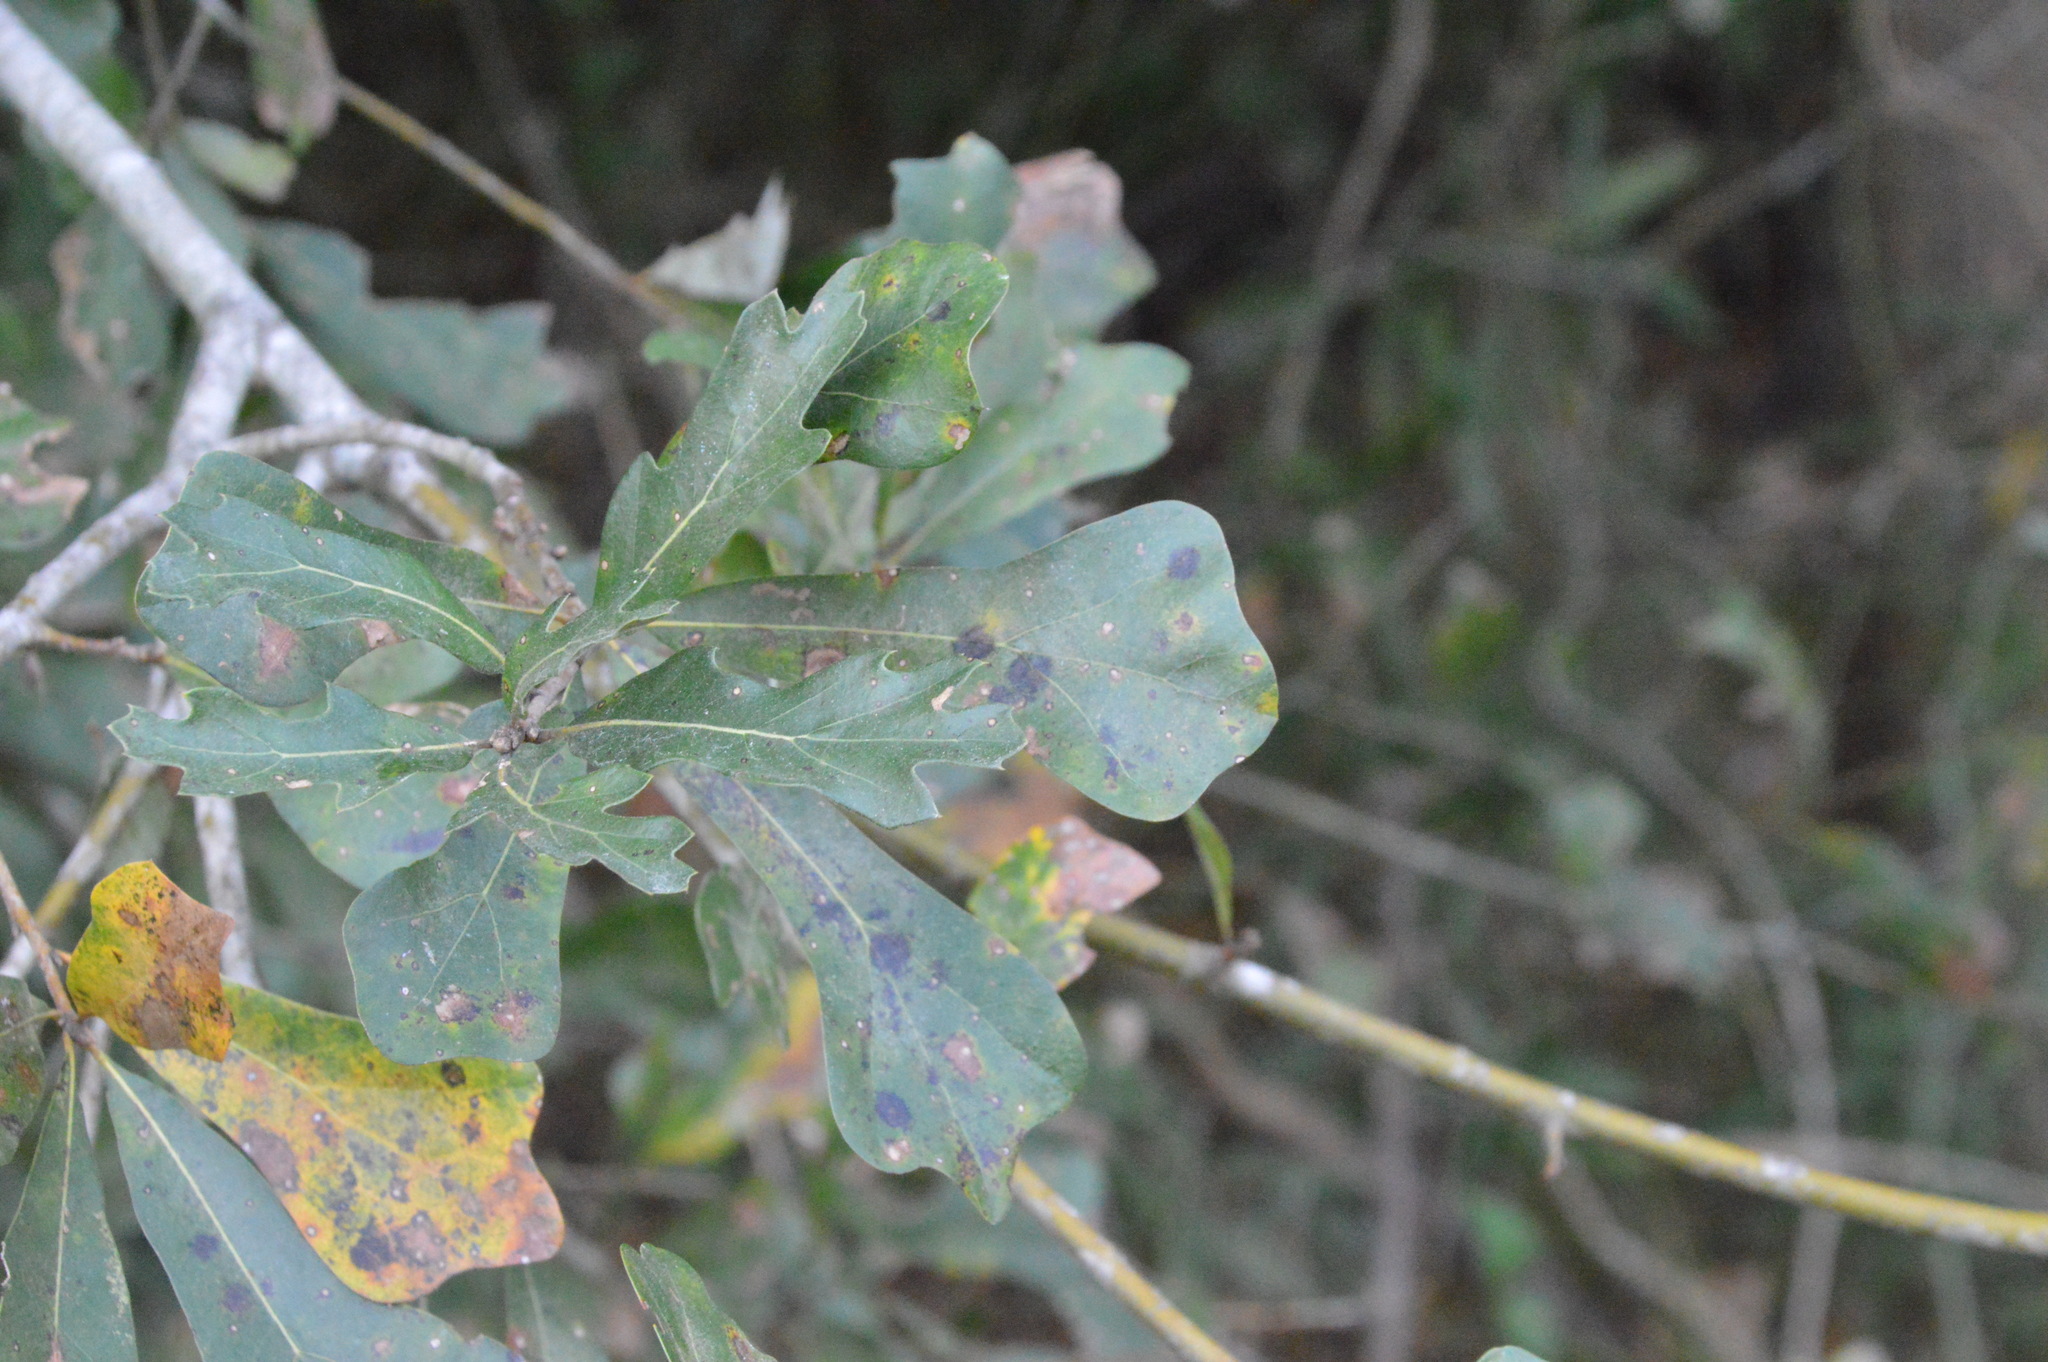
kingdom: Plantae
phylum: Tracheophyta
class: Magnoliopsida
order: Fagales
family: Fagaceae
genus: Quercus
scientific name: Quercus nigra
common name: Water oak
